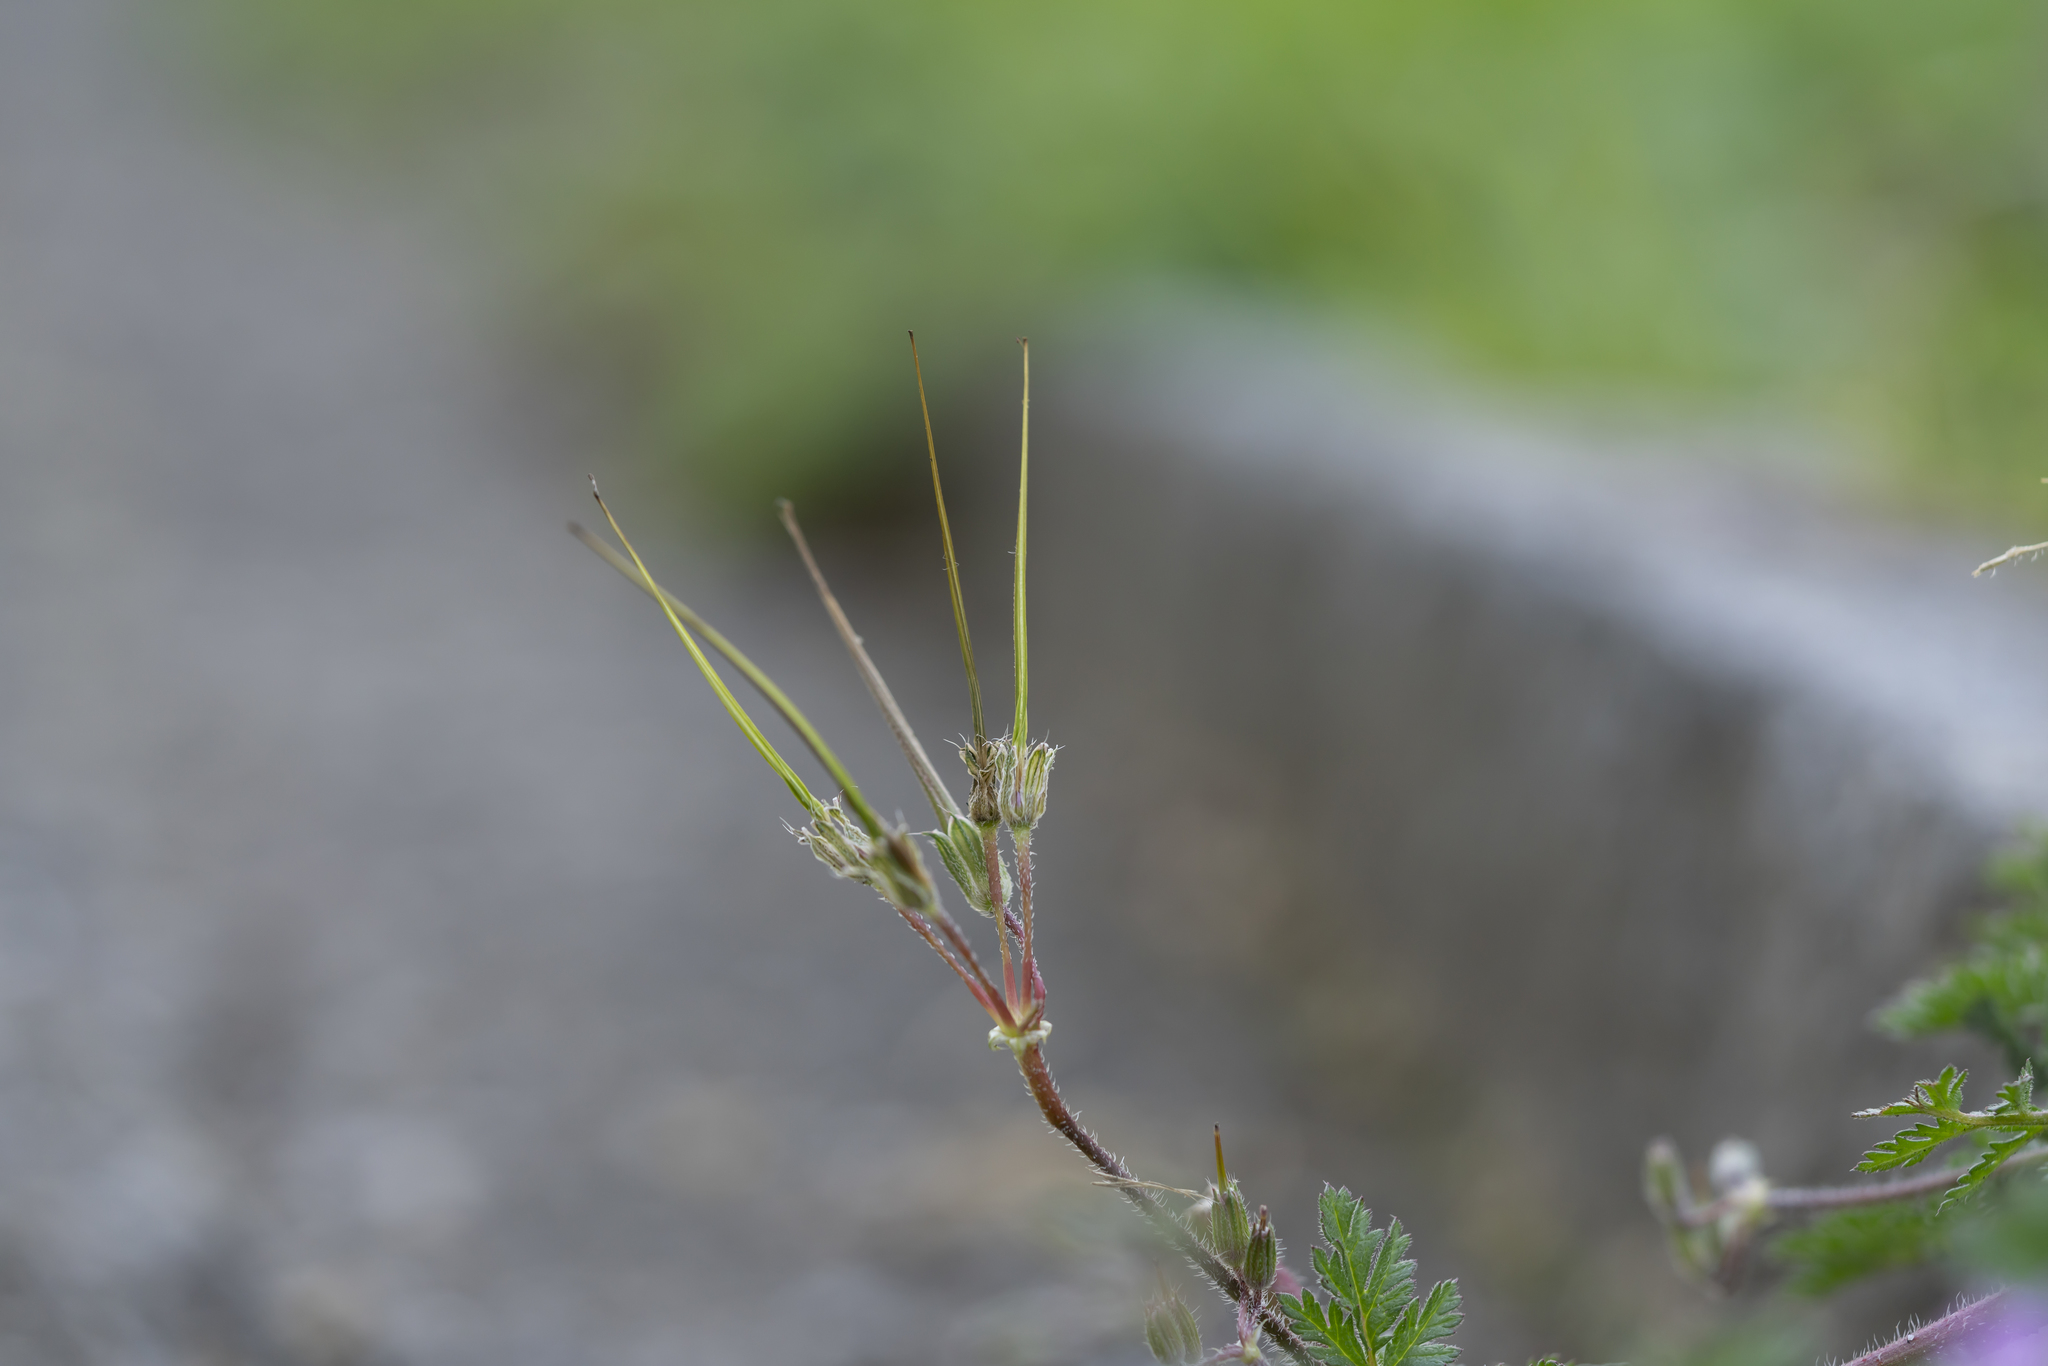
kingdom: Plantae
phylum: Tracheophyta
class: Magnoliopsida
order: Geraniales
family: Geraniaceae
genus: Erodium
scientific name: Erodium cicutarium
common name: Common stork's-bill
